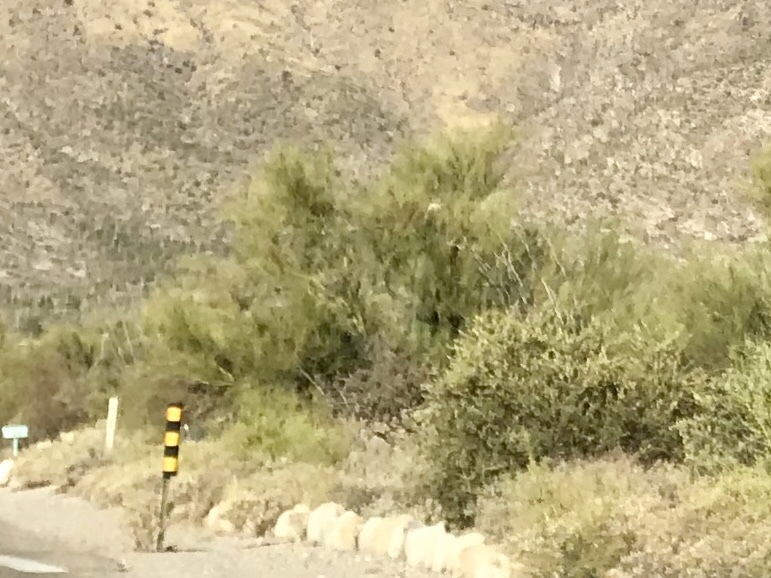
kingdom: Plantae
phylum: Tracheophyta
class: Magnoliopsida
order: Fabales
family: Fabaceae
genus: Parkinsonia
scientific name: Parkinsonia microphylla
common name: Yellow paloverde
